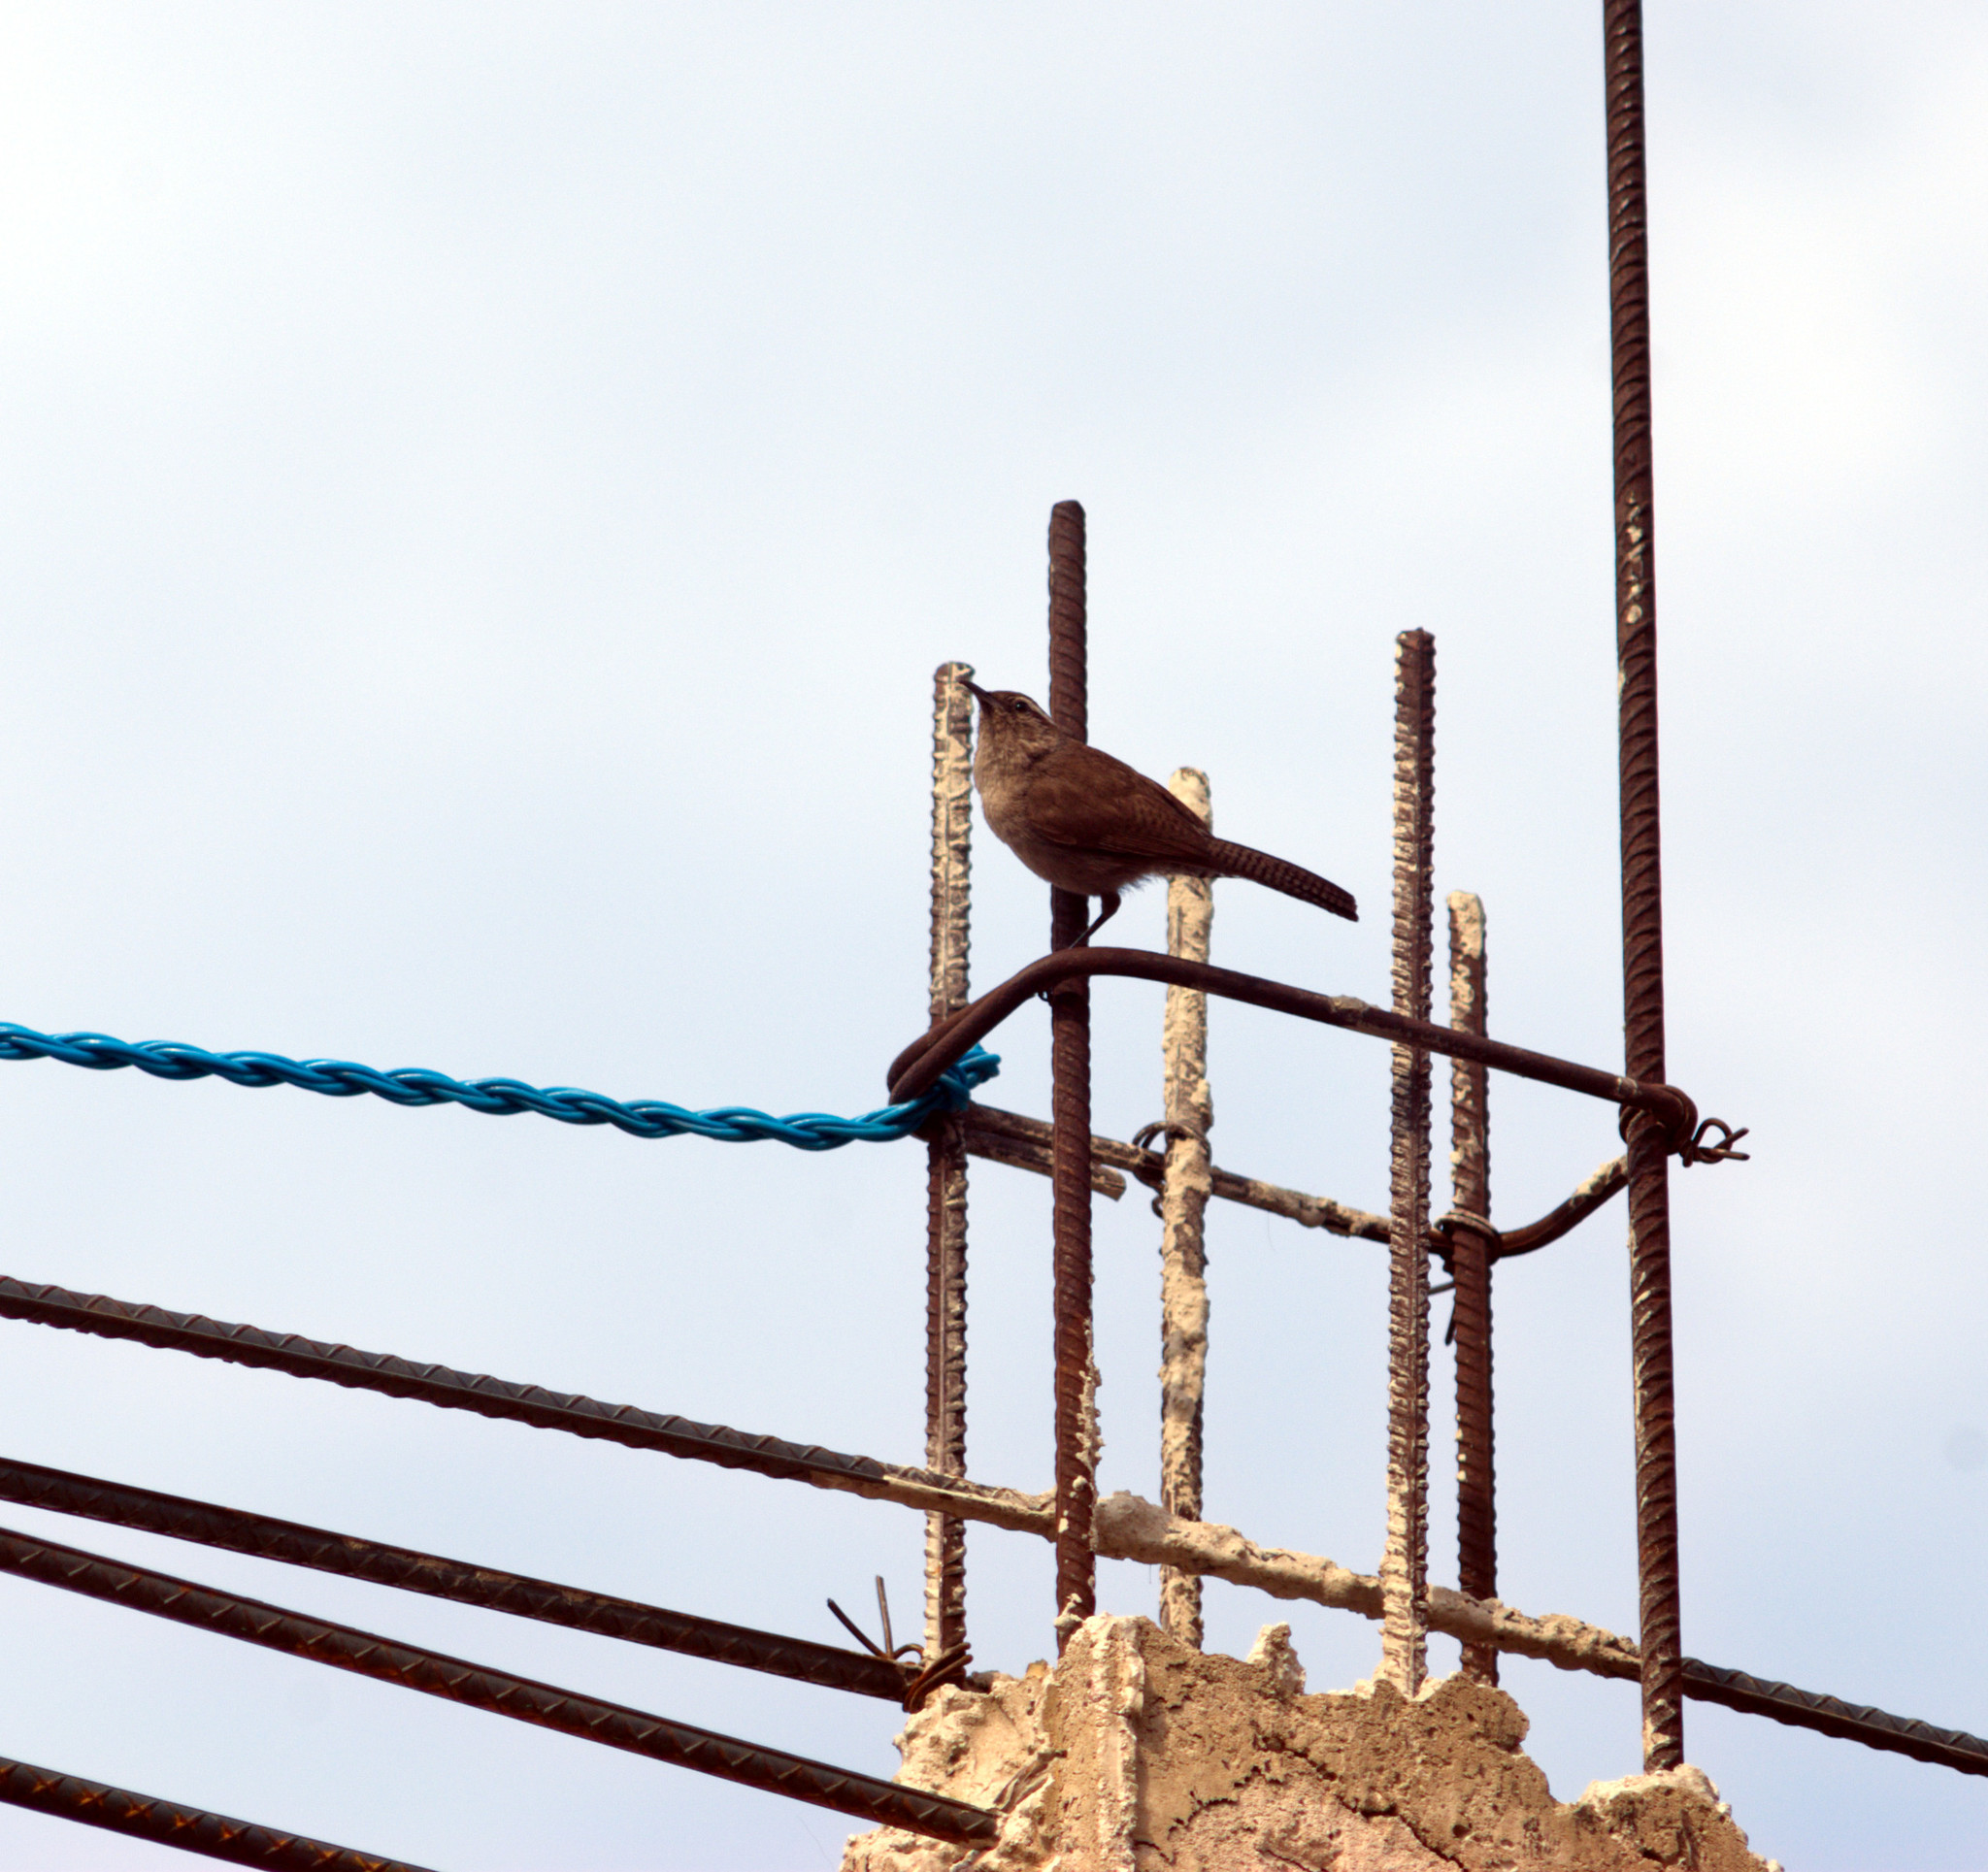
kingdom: Animalia
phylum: Chordata
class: Aves
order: Passeriformes
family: Troglodytidae
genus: Thryomanes
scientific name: Thryomanes bewickii
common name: Bewick's wren
